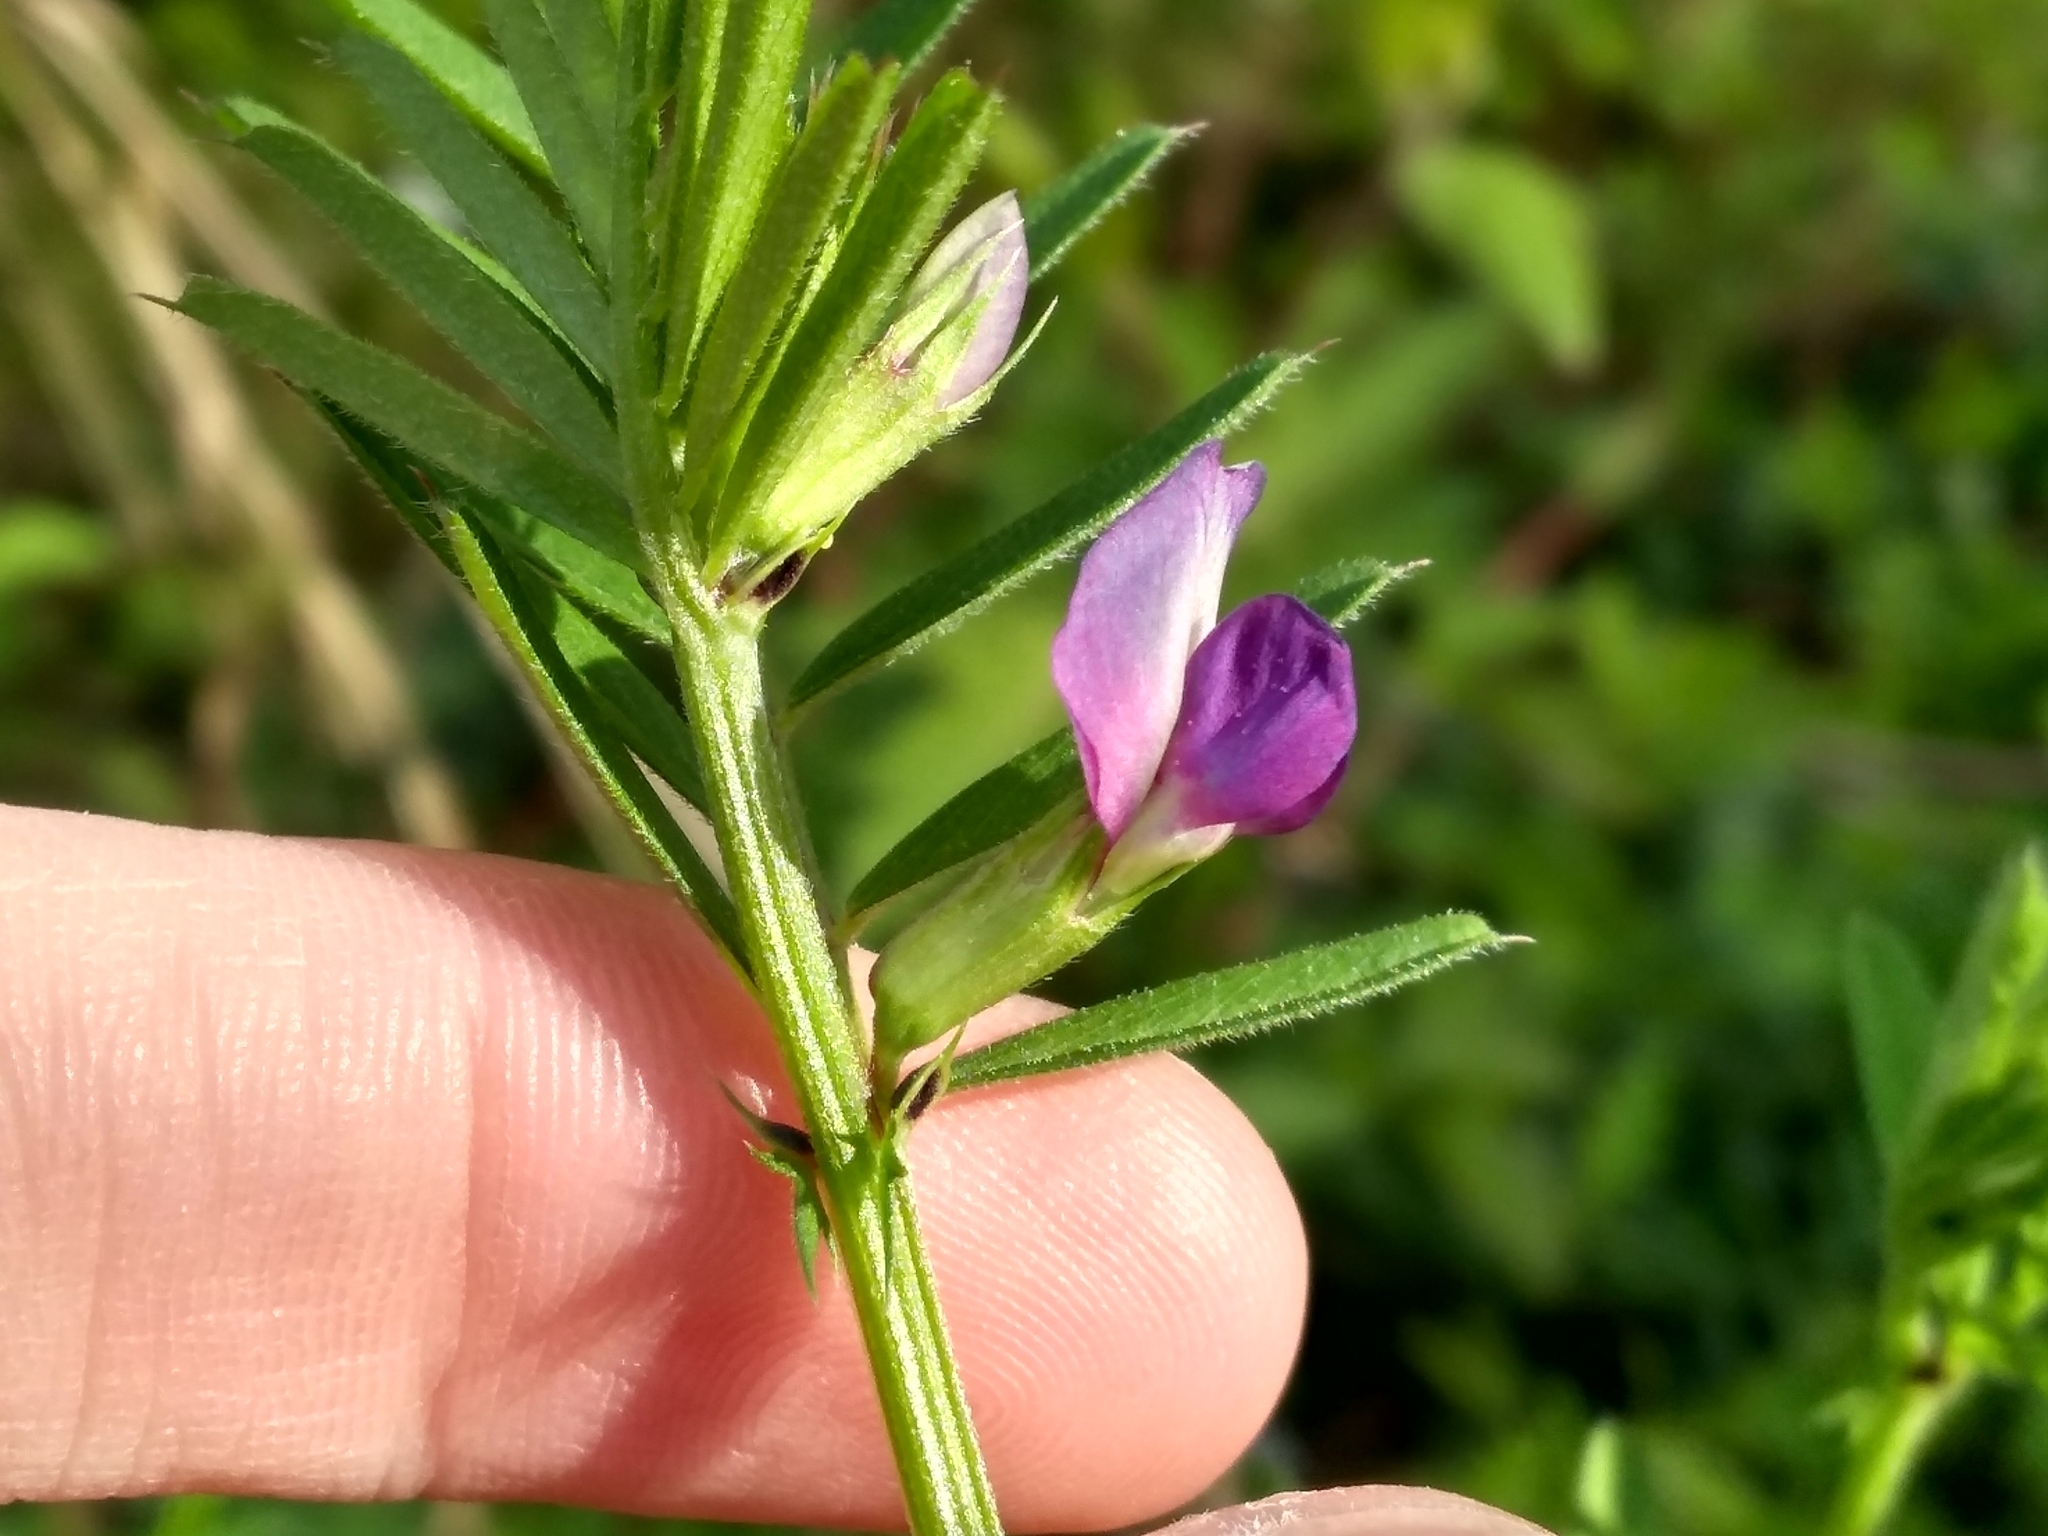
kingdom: Plantae
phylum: Tracheophyta
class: Magnoliopsida
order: Fabales
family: Fabaceae
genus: Vicia
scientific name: Vicia sativa
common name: Garden vetch
